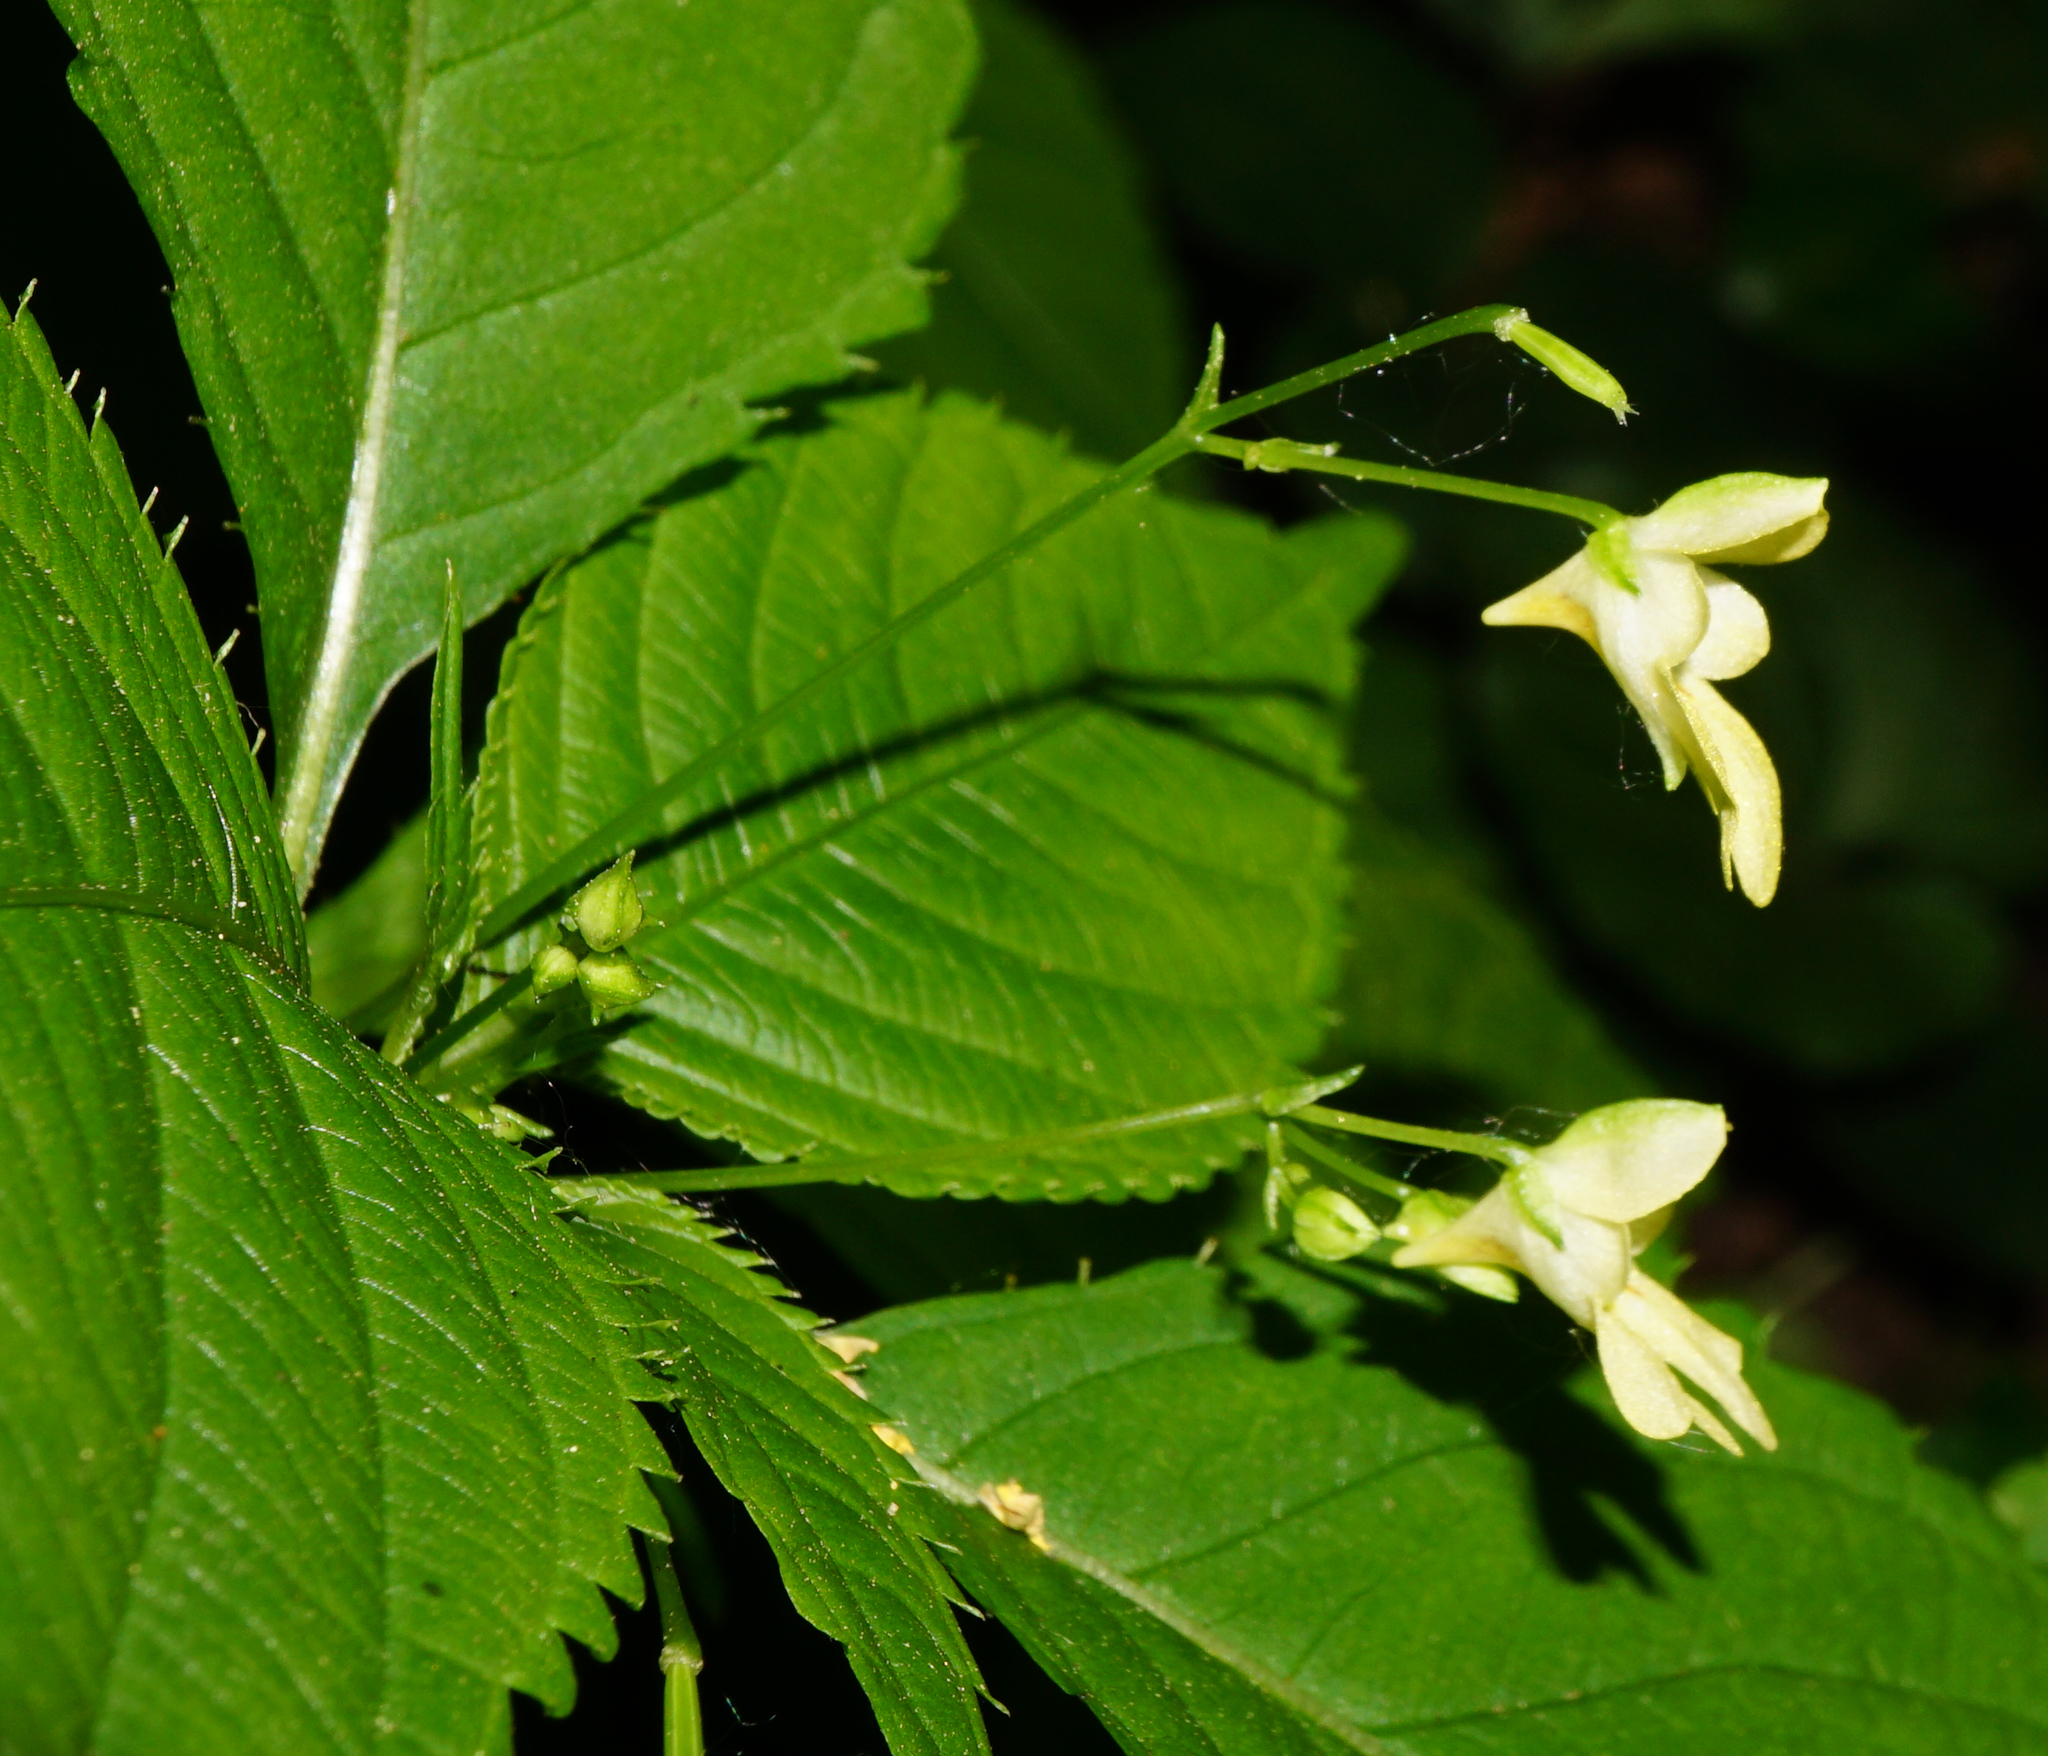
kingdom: Plantae
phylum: Tracheophyta
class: Magnoliopsida
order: Ericales
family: Balsaminaceae
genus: Impatiens
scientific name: Impatiens parviflora
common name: Small balsam
